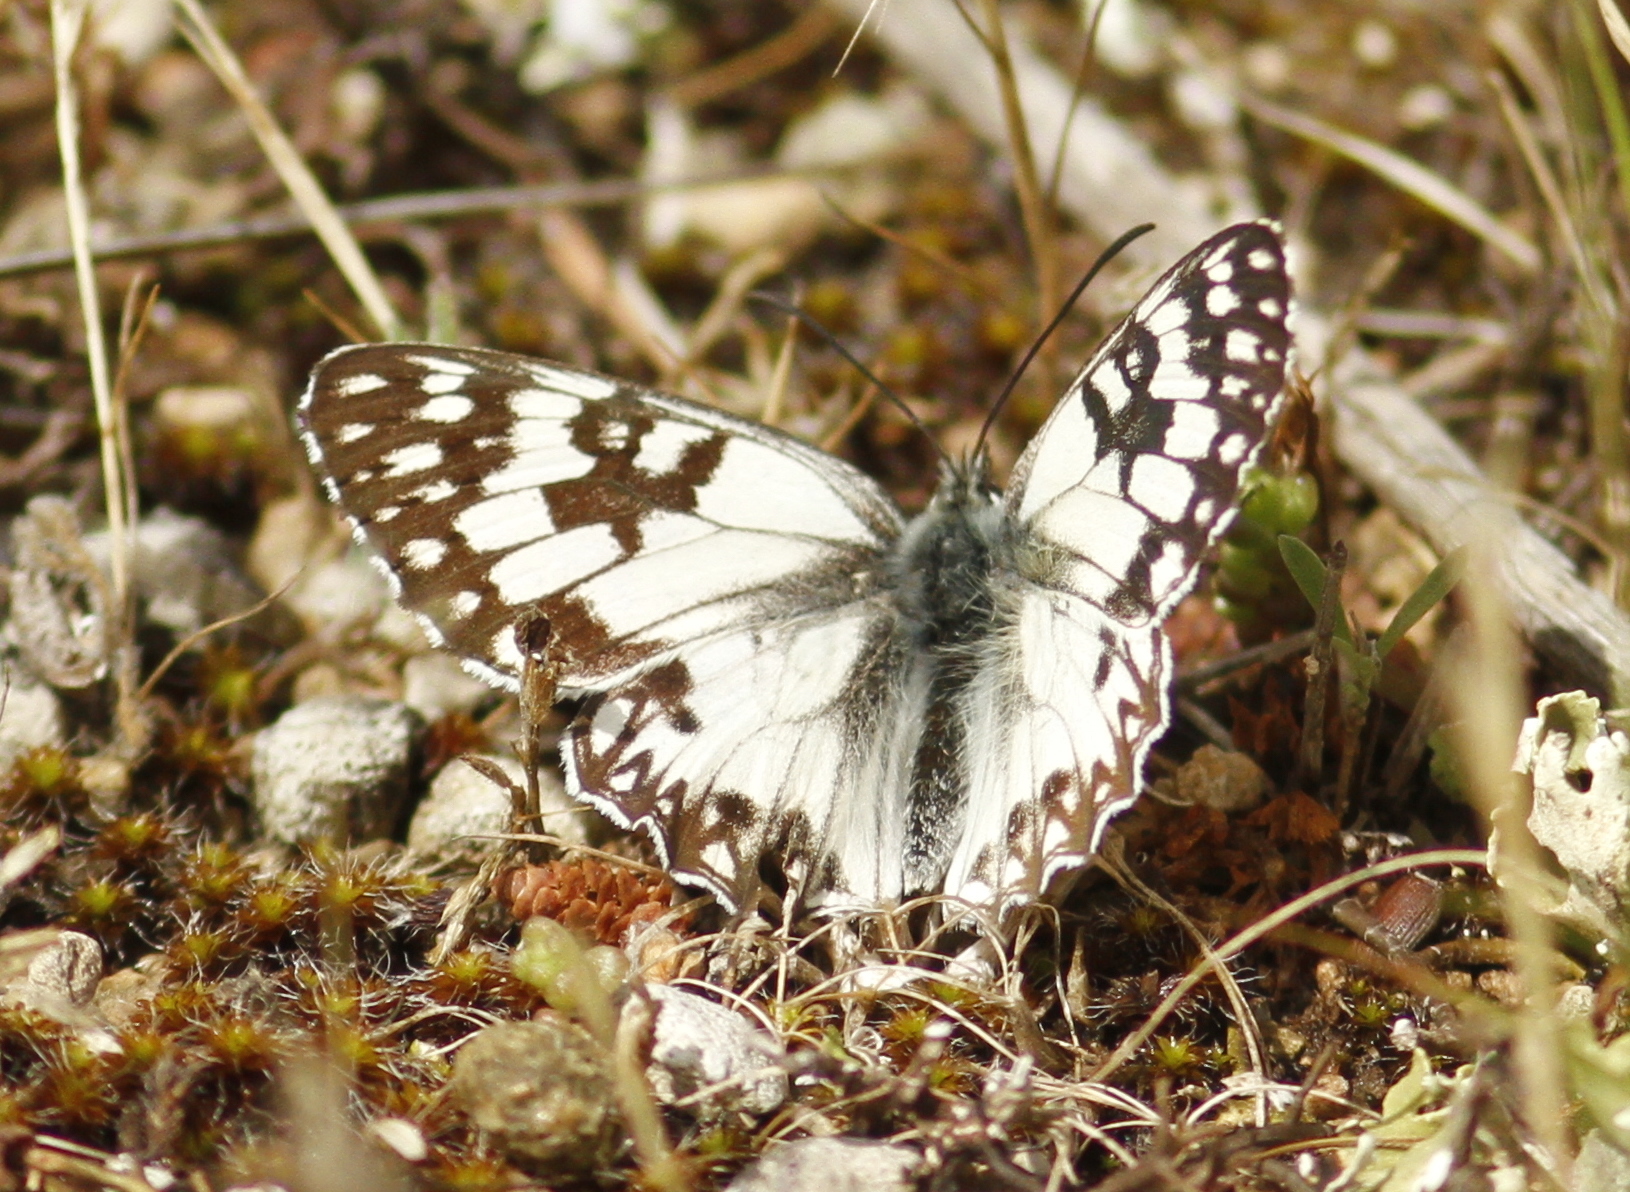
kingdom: Animalia
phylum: Arthropoda
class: Insecta
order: Lepidoptera
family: Nymphalidae
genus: Melanargia
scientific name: Melanargia occitanica
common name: Western marbled white
